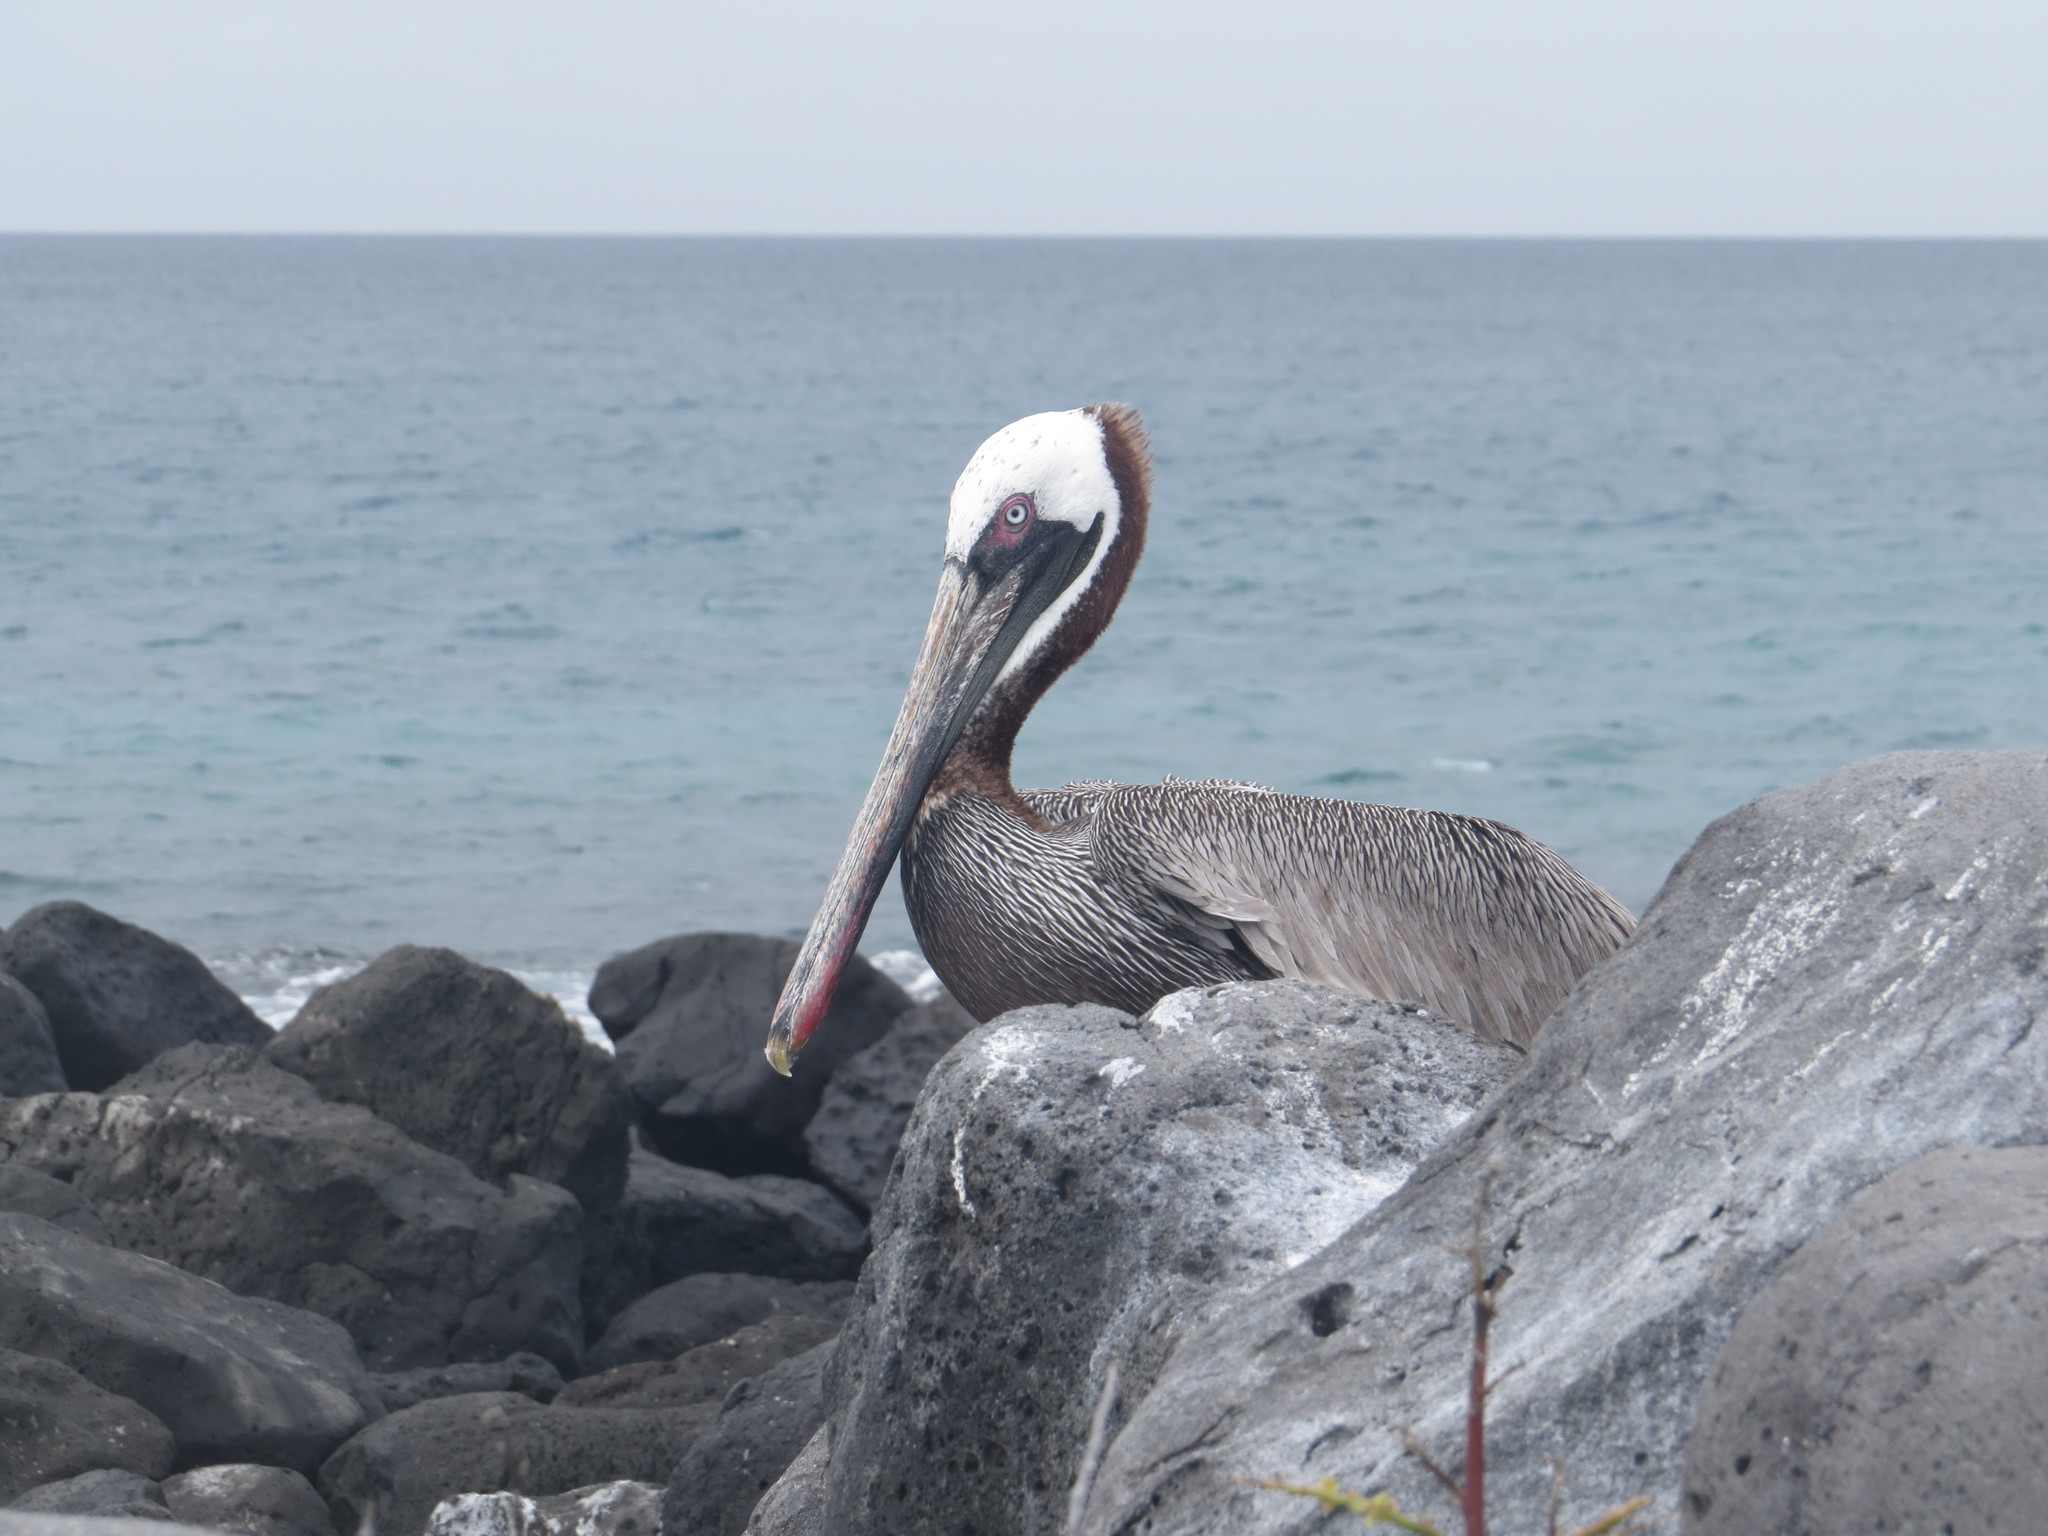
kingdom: Animalia
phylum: Chordata
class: Aves
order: Pelecaniformes
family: Pelecanidae
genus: Pelecanus
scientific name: Pelecanus occidentalis
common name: Brown pelican
